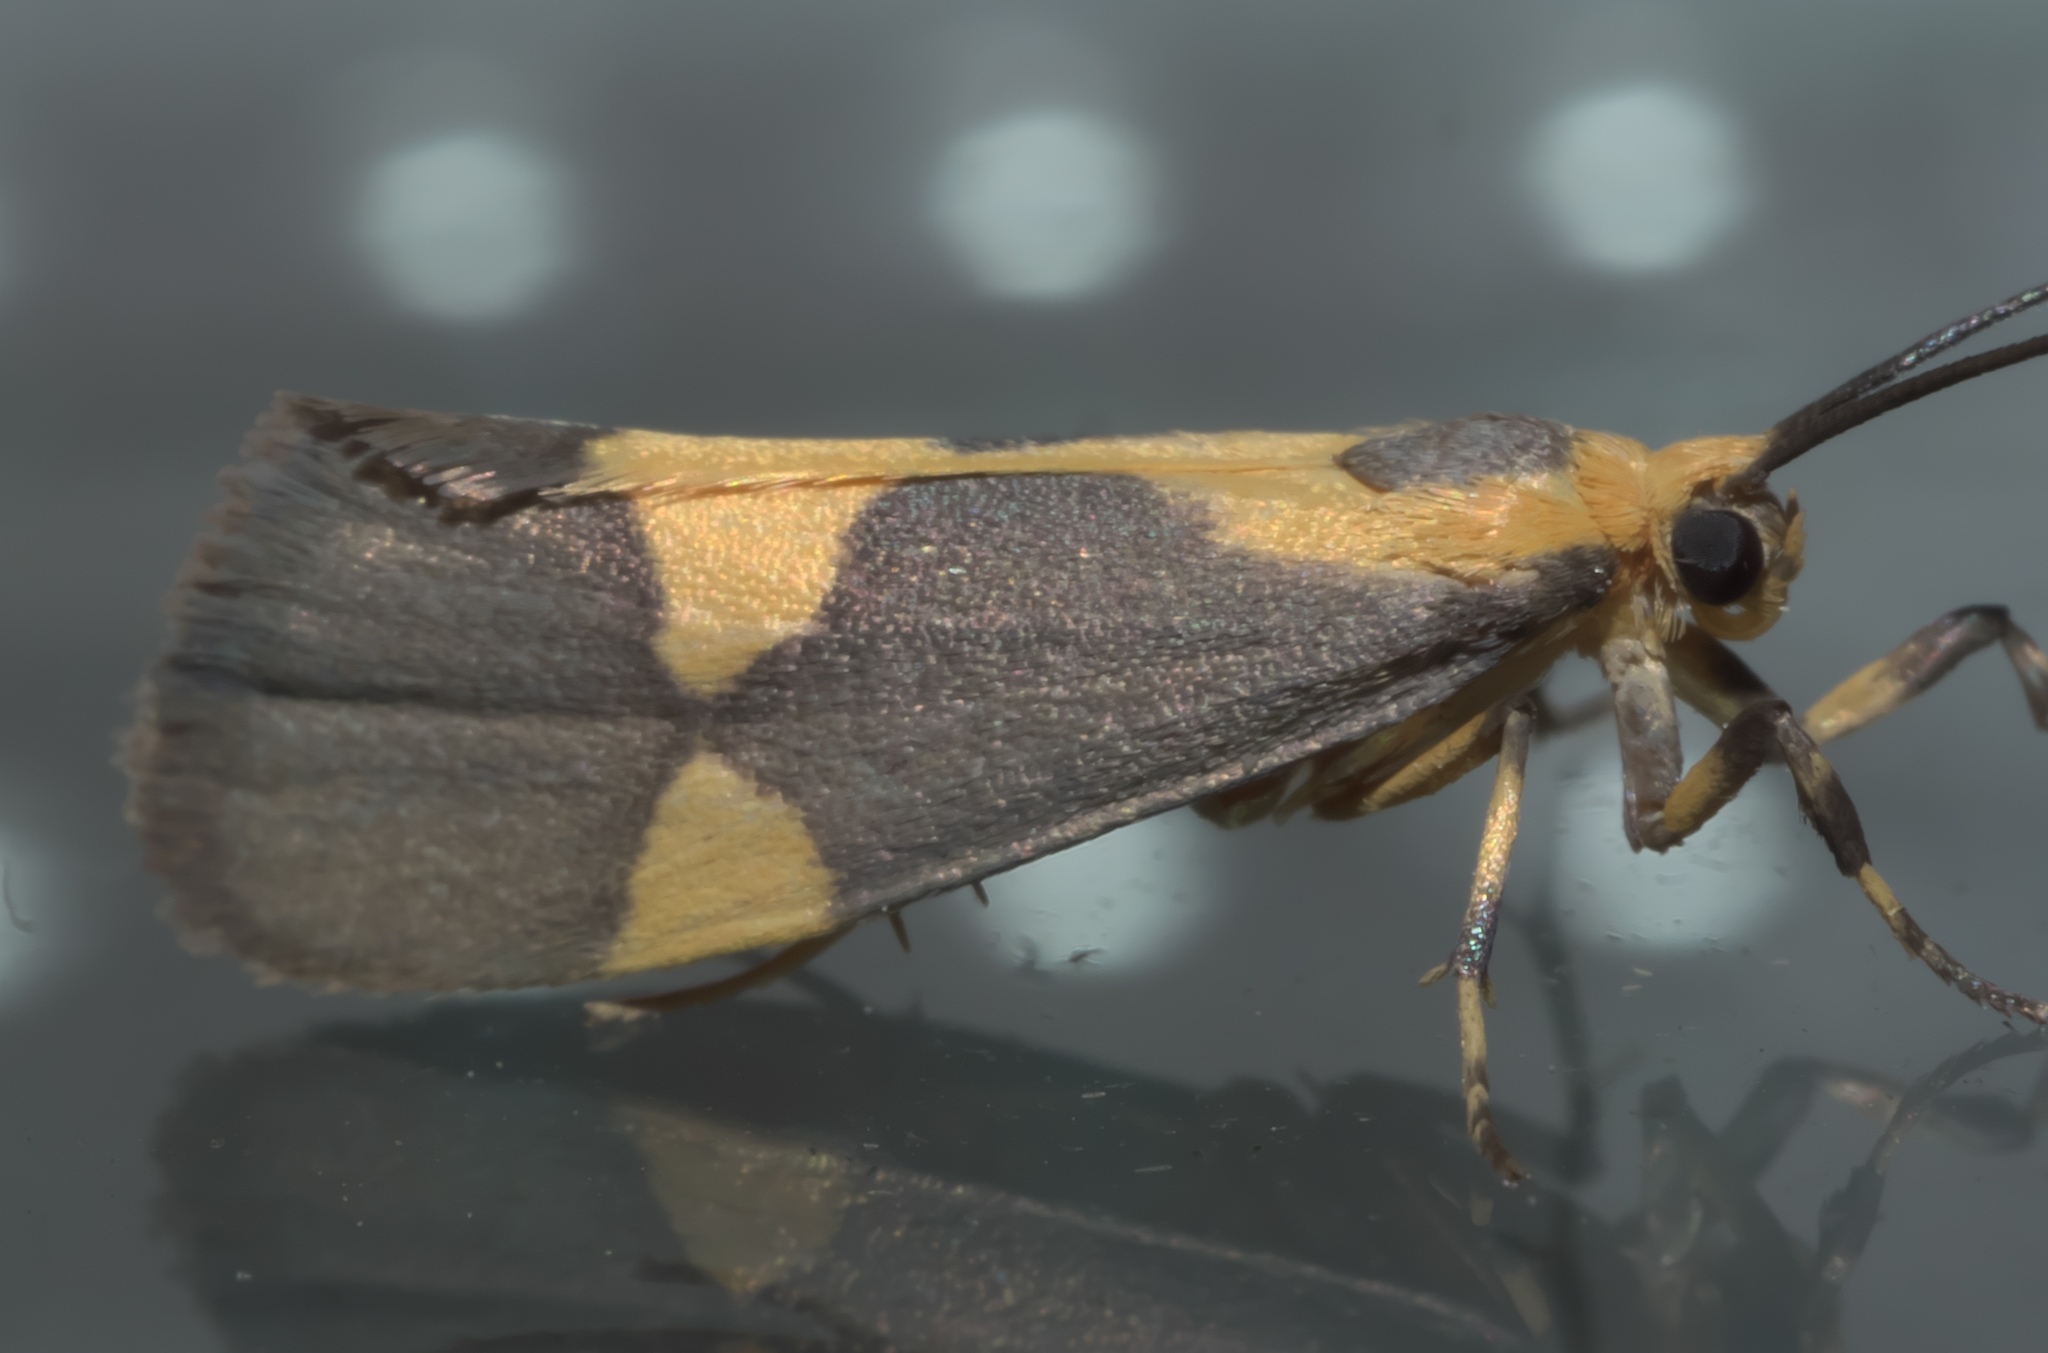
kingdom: Animalia
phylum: Arthropoda
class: Insecta
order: Lepidoptera
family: Erebidae
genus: Cisthene
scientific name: Cisthene unifascia
